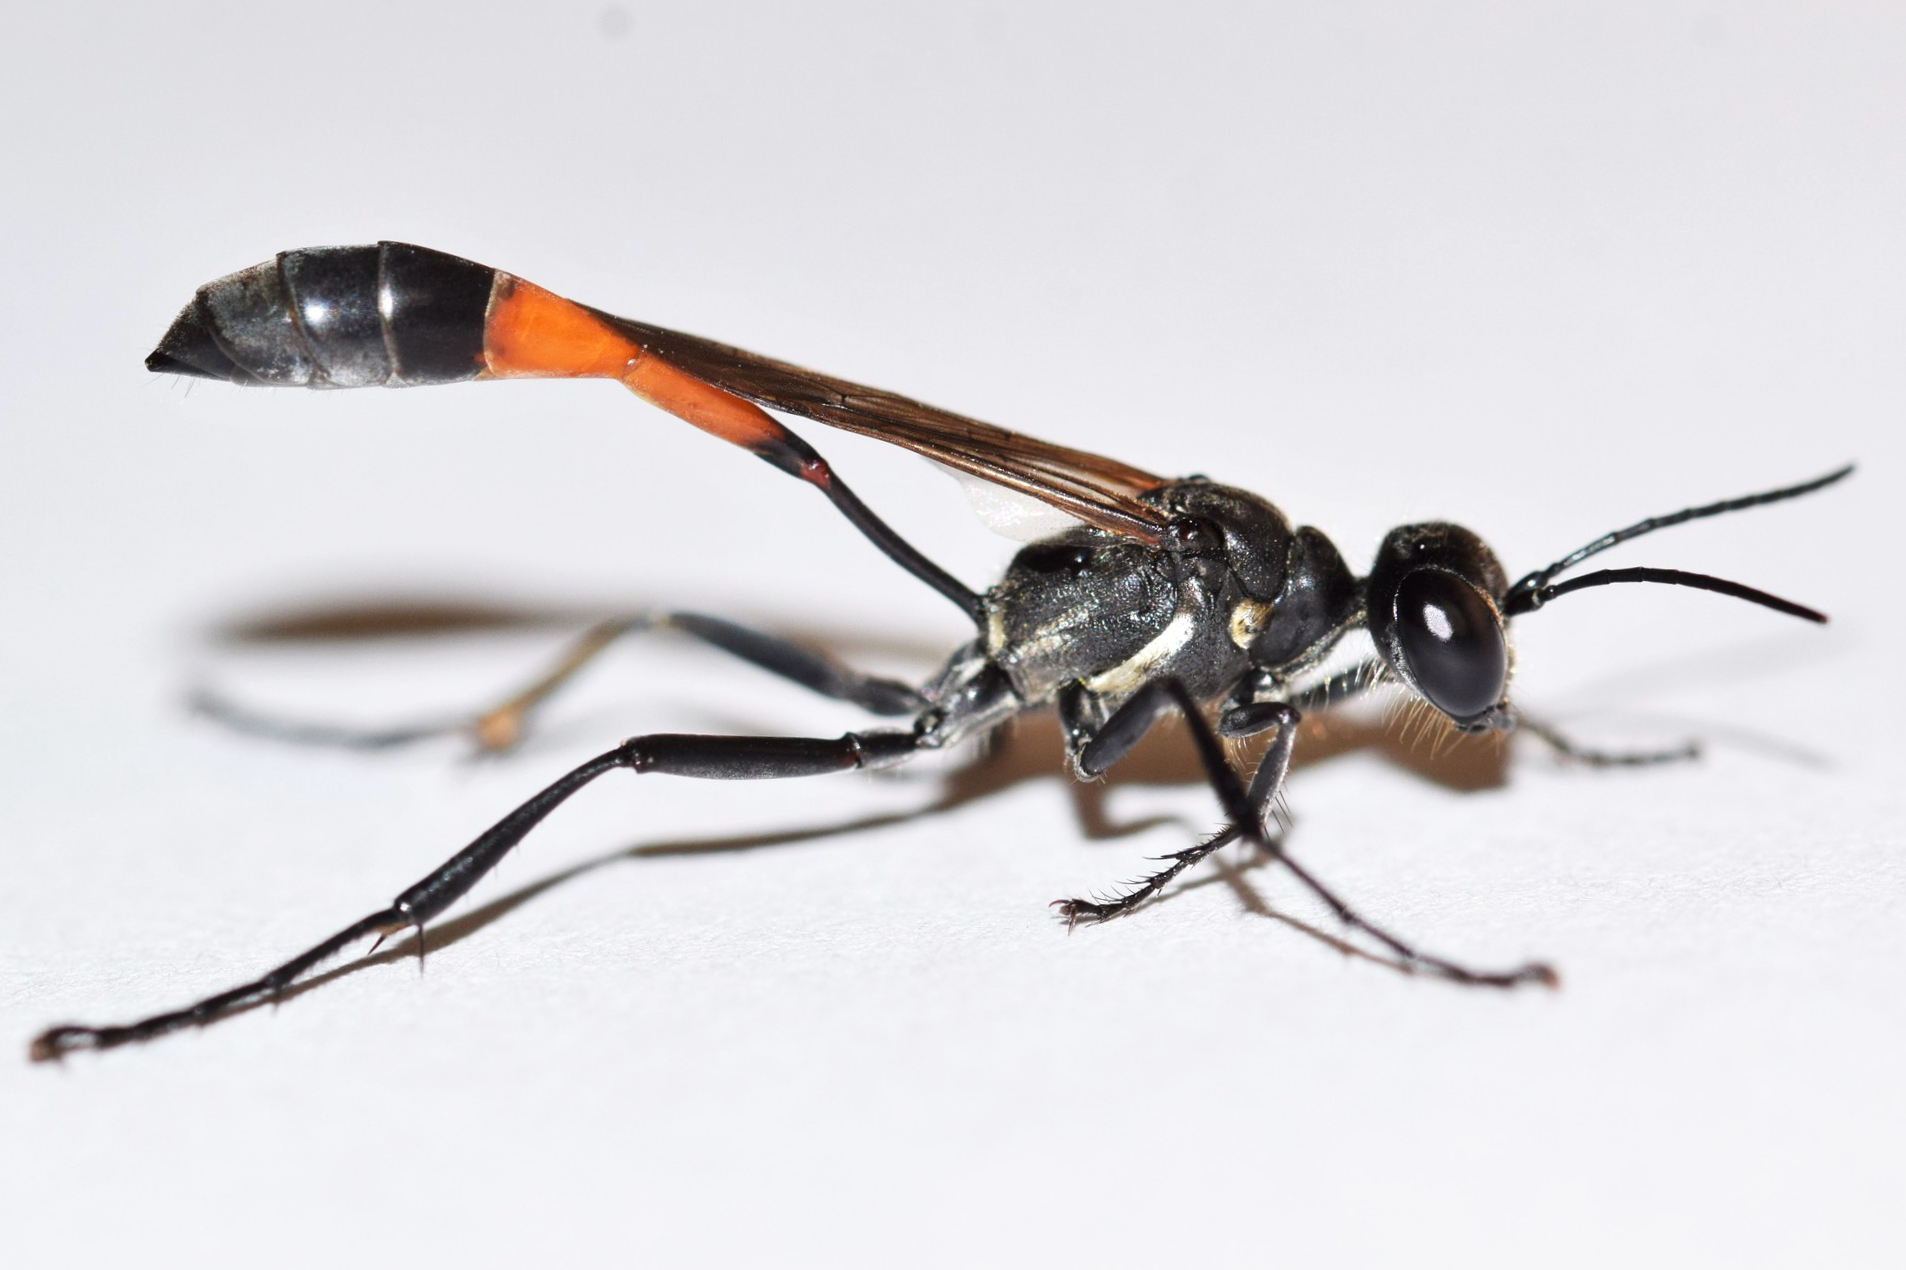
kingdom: Animalia
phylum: Arthropoda
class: Insecta
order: Hymenoptera
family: Sphecidae
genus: Ammophila
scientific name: Ammophila kennedyi
